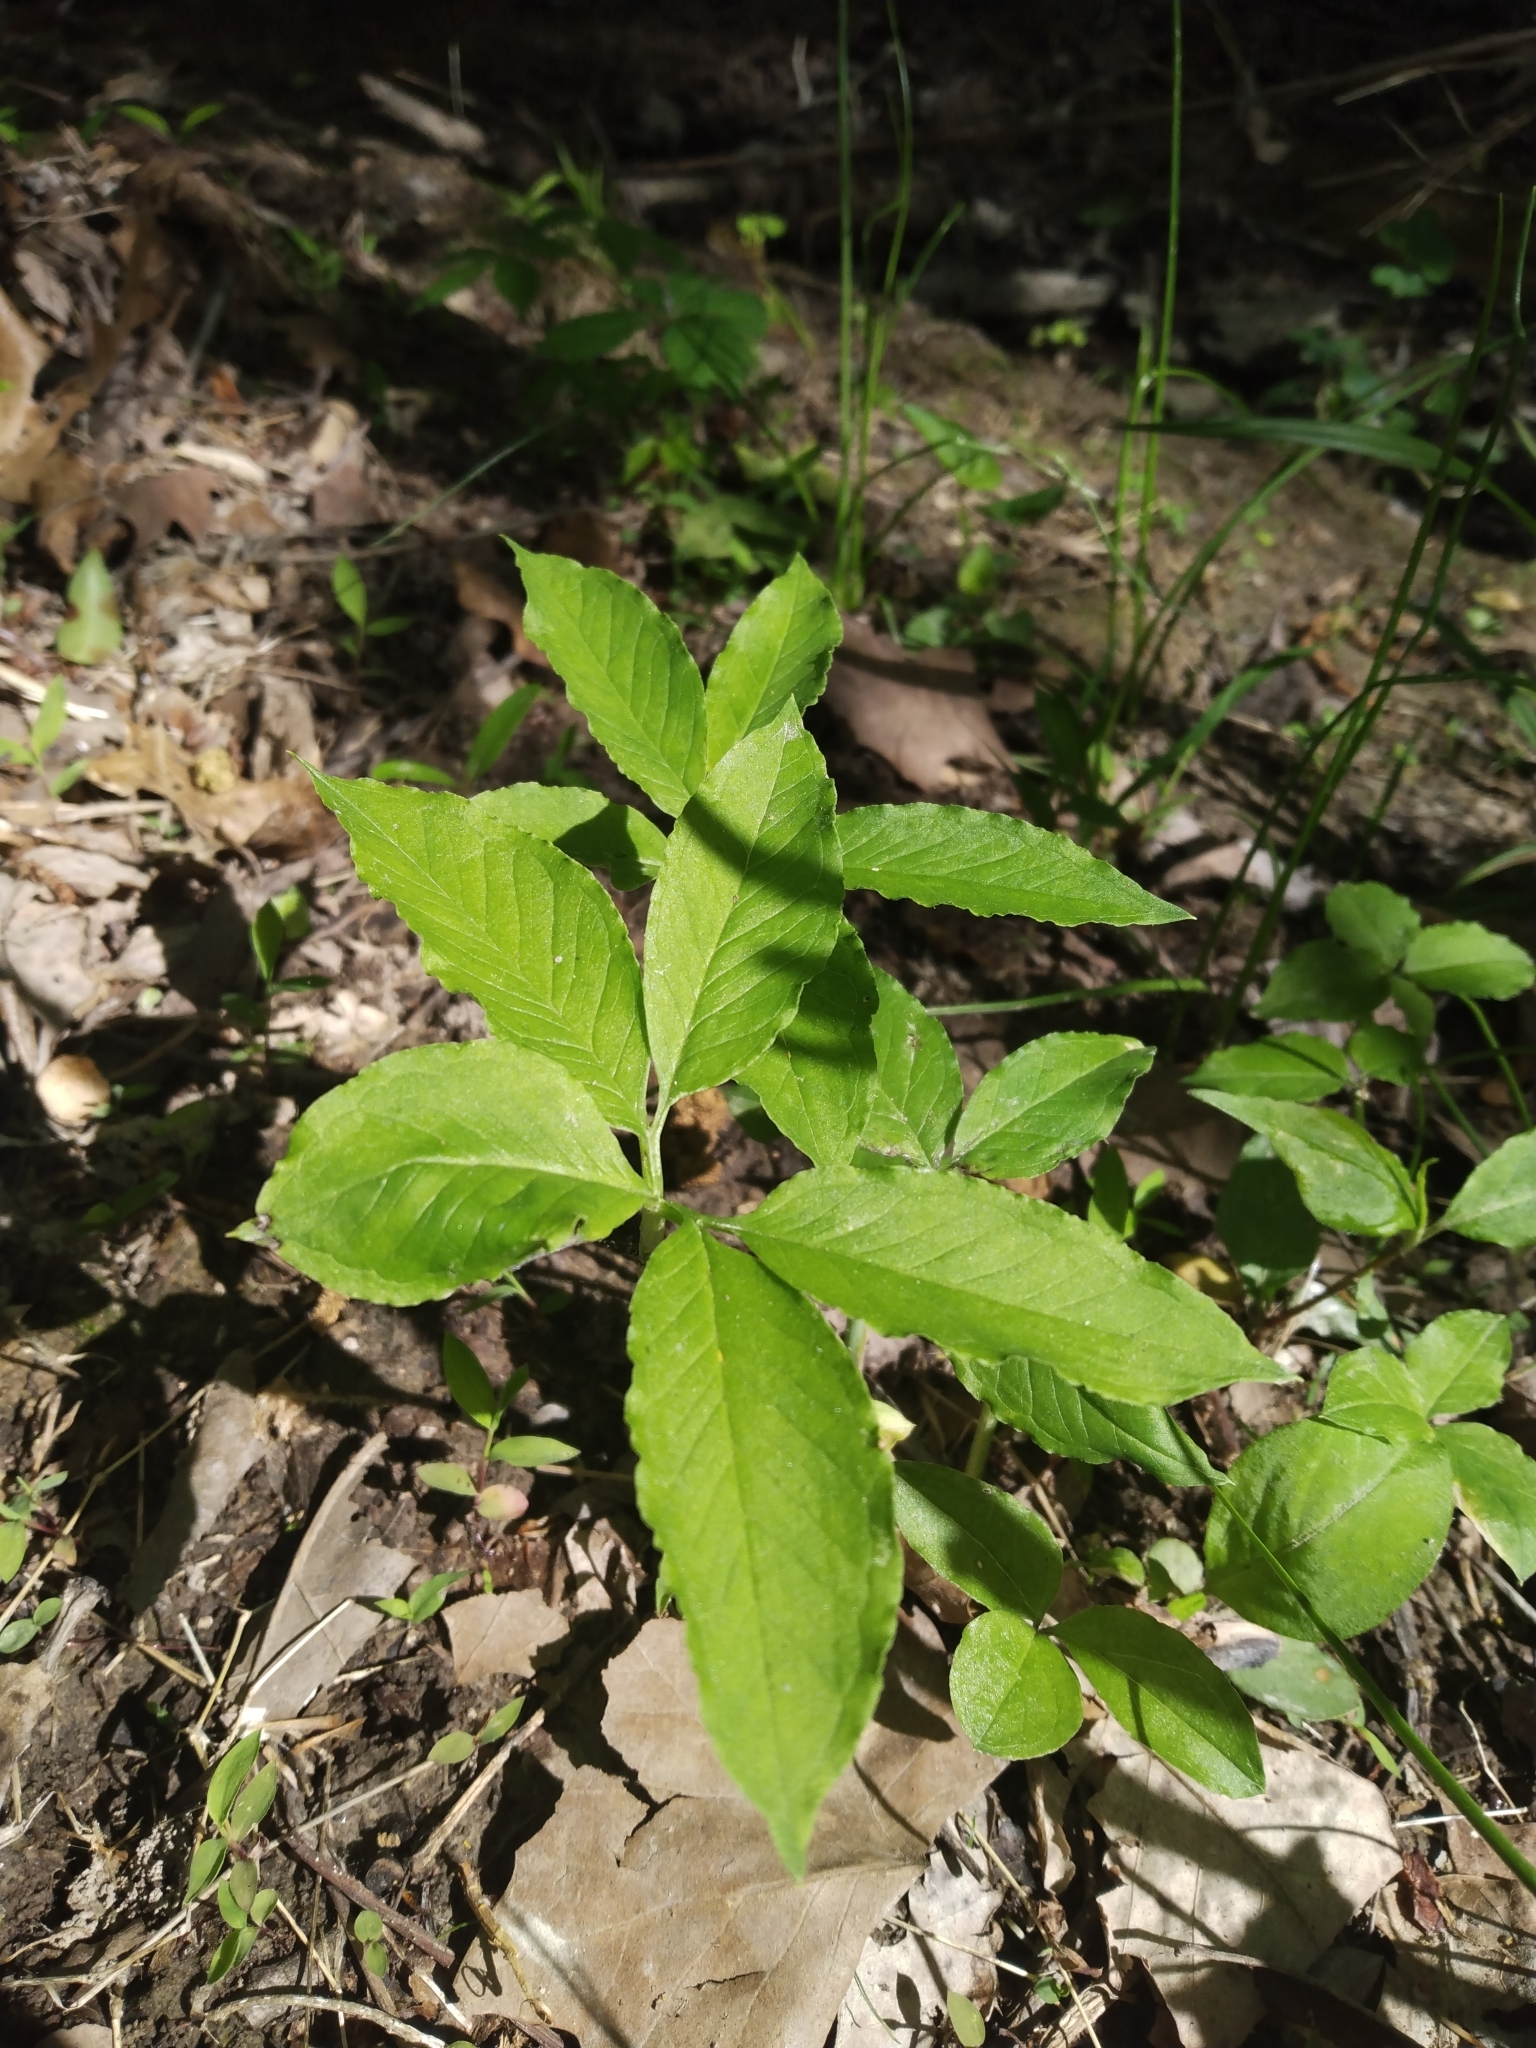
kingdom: Plantae
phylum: Tracheophyta
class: Liliopsida
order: Alismatales
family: Araceae
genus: Arisaema
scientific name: Arisaema dracontium
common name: Dragon-arum
